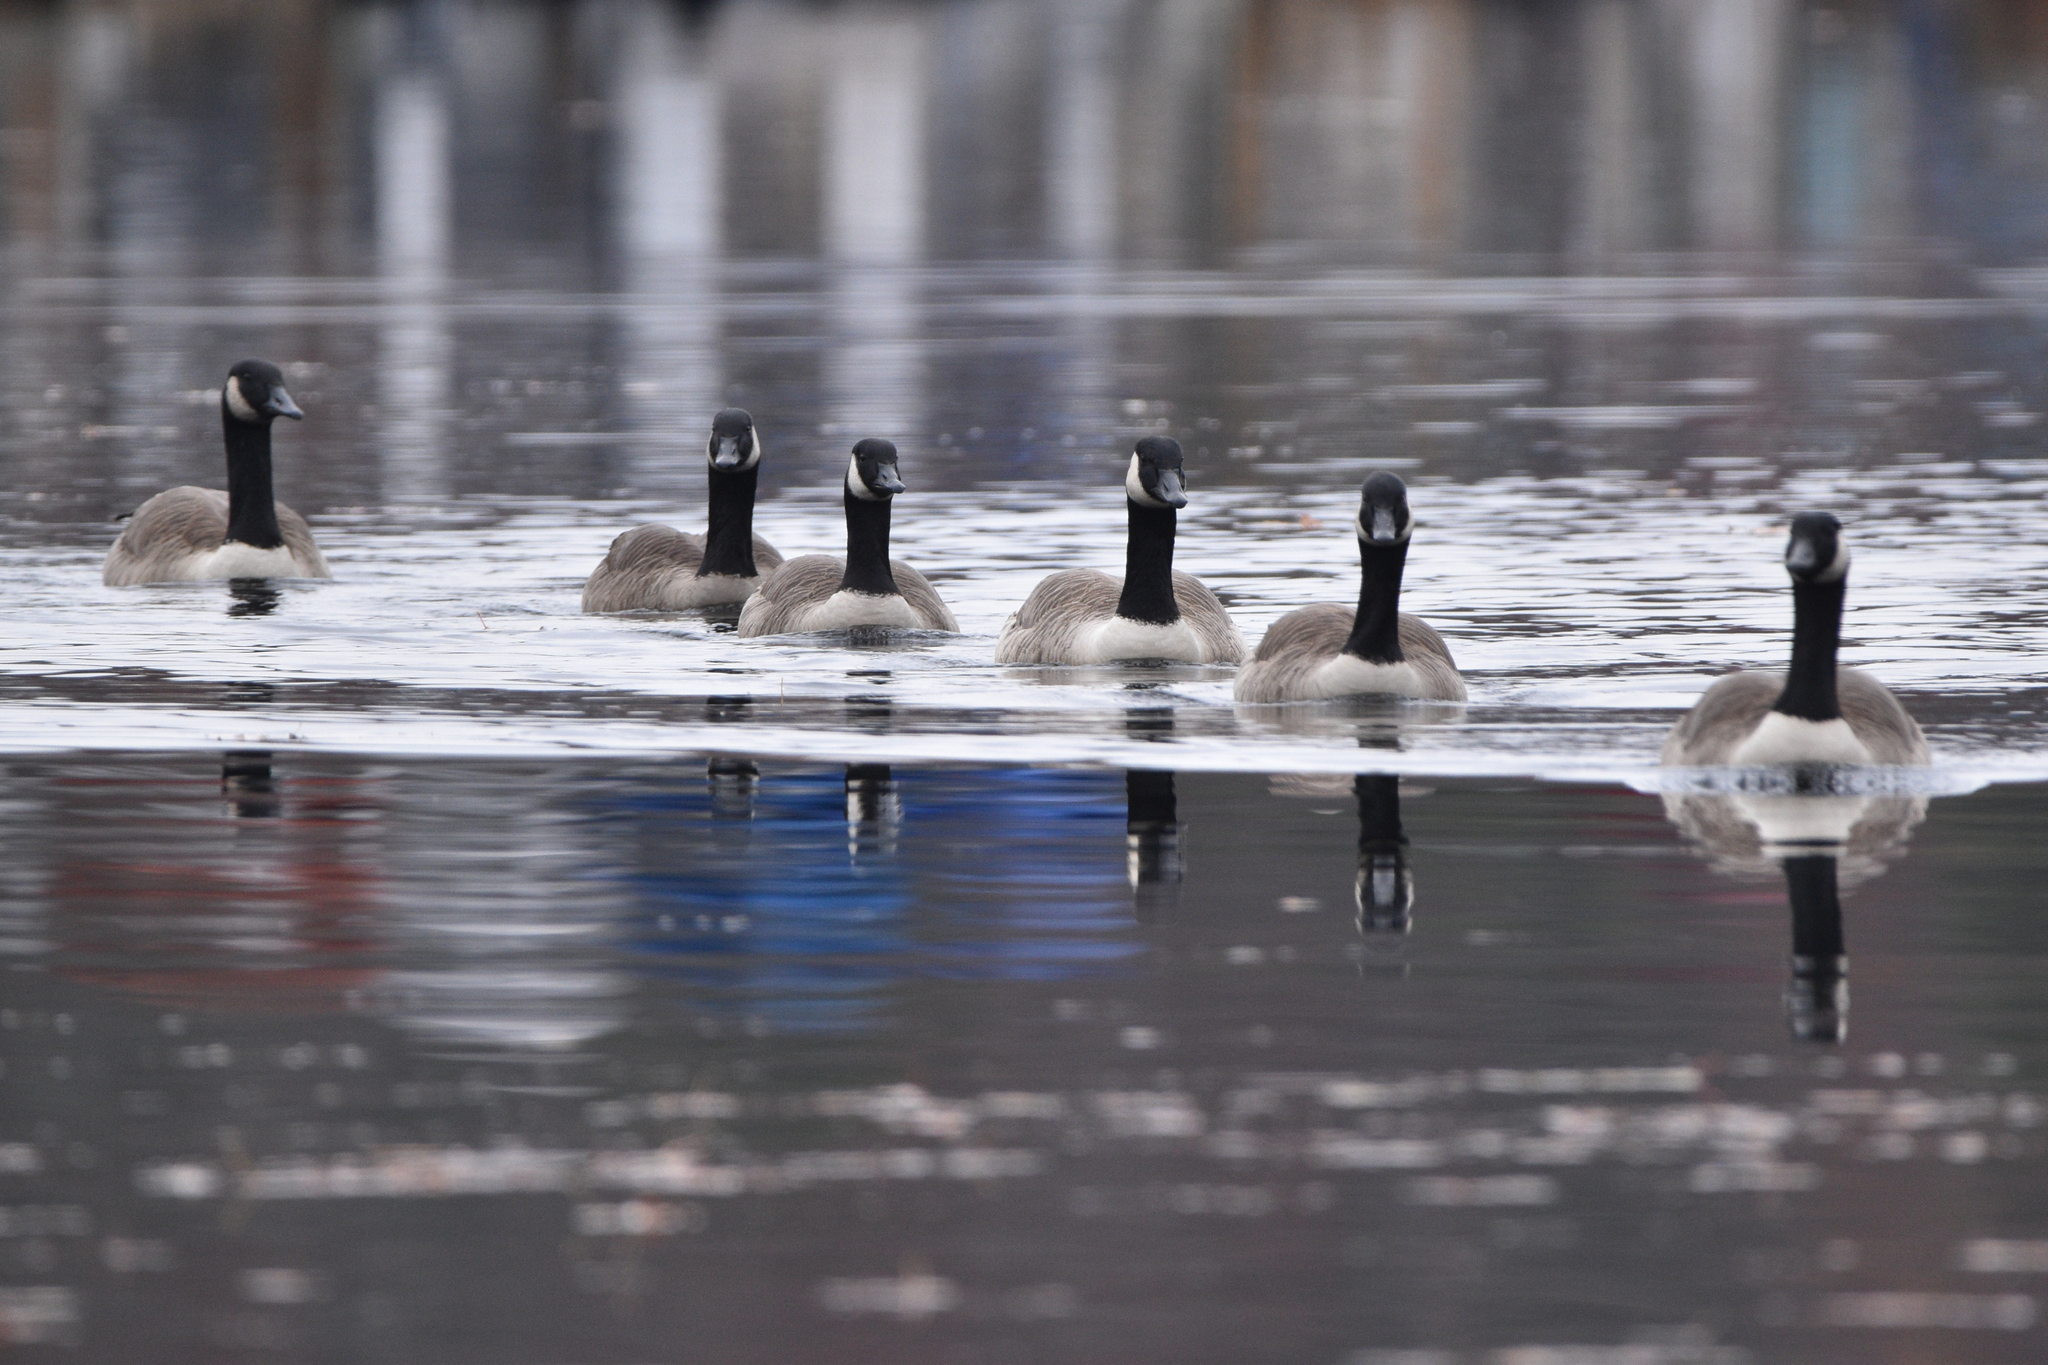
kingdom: Animalia
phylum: Chordata
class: Aves
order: Anseriformes
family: Anatidae
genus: Branta
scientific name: Branta canadensis
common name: Canada goose
